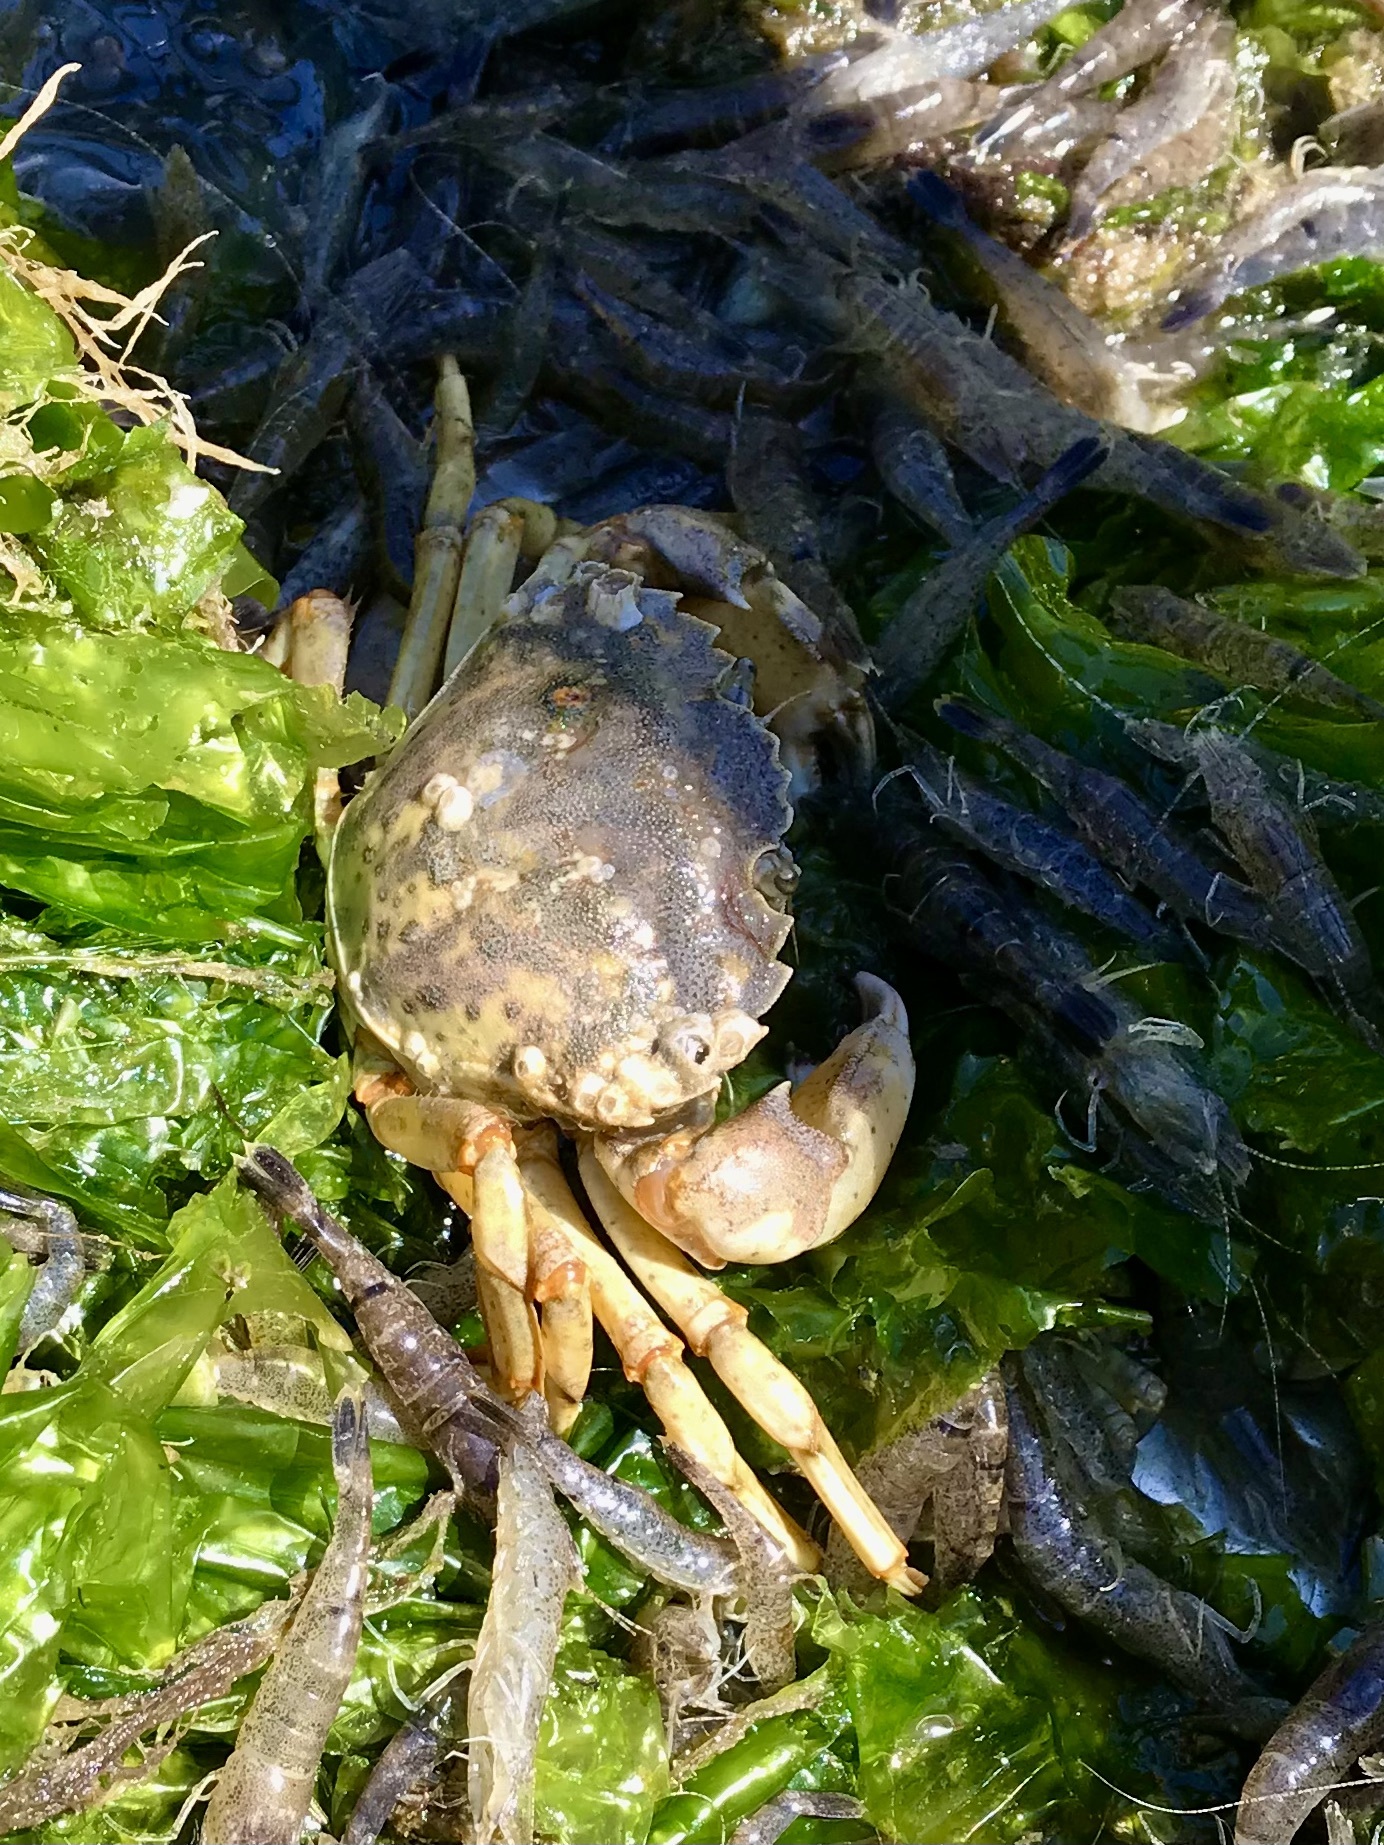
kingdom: Animalia
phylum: Arthropoda
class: Malacostraca
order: Decapoda
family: Carcinidae
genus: Carcinus
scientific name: Carcinus maenas
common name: European green crab
